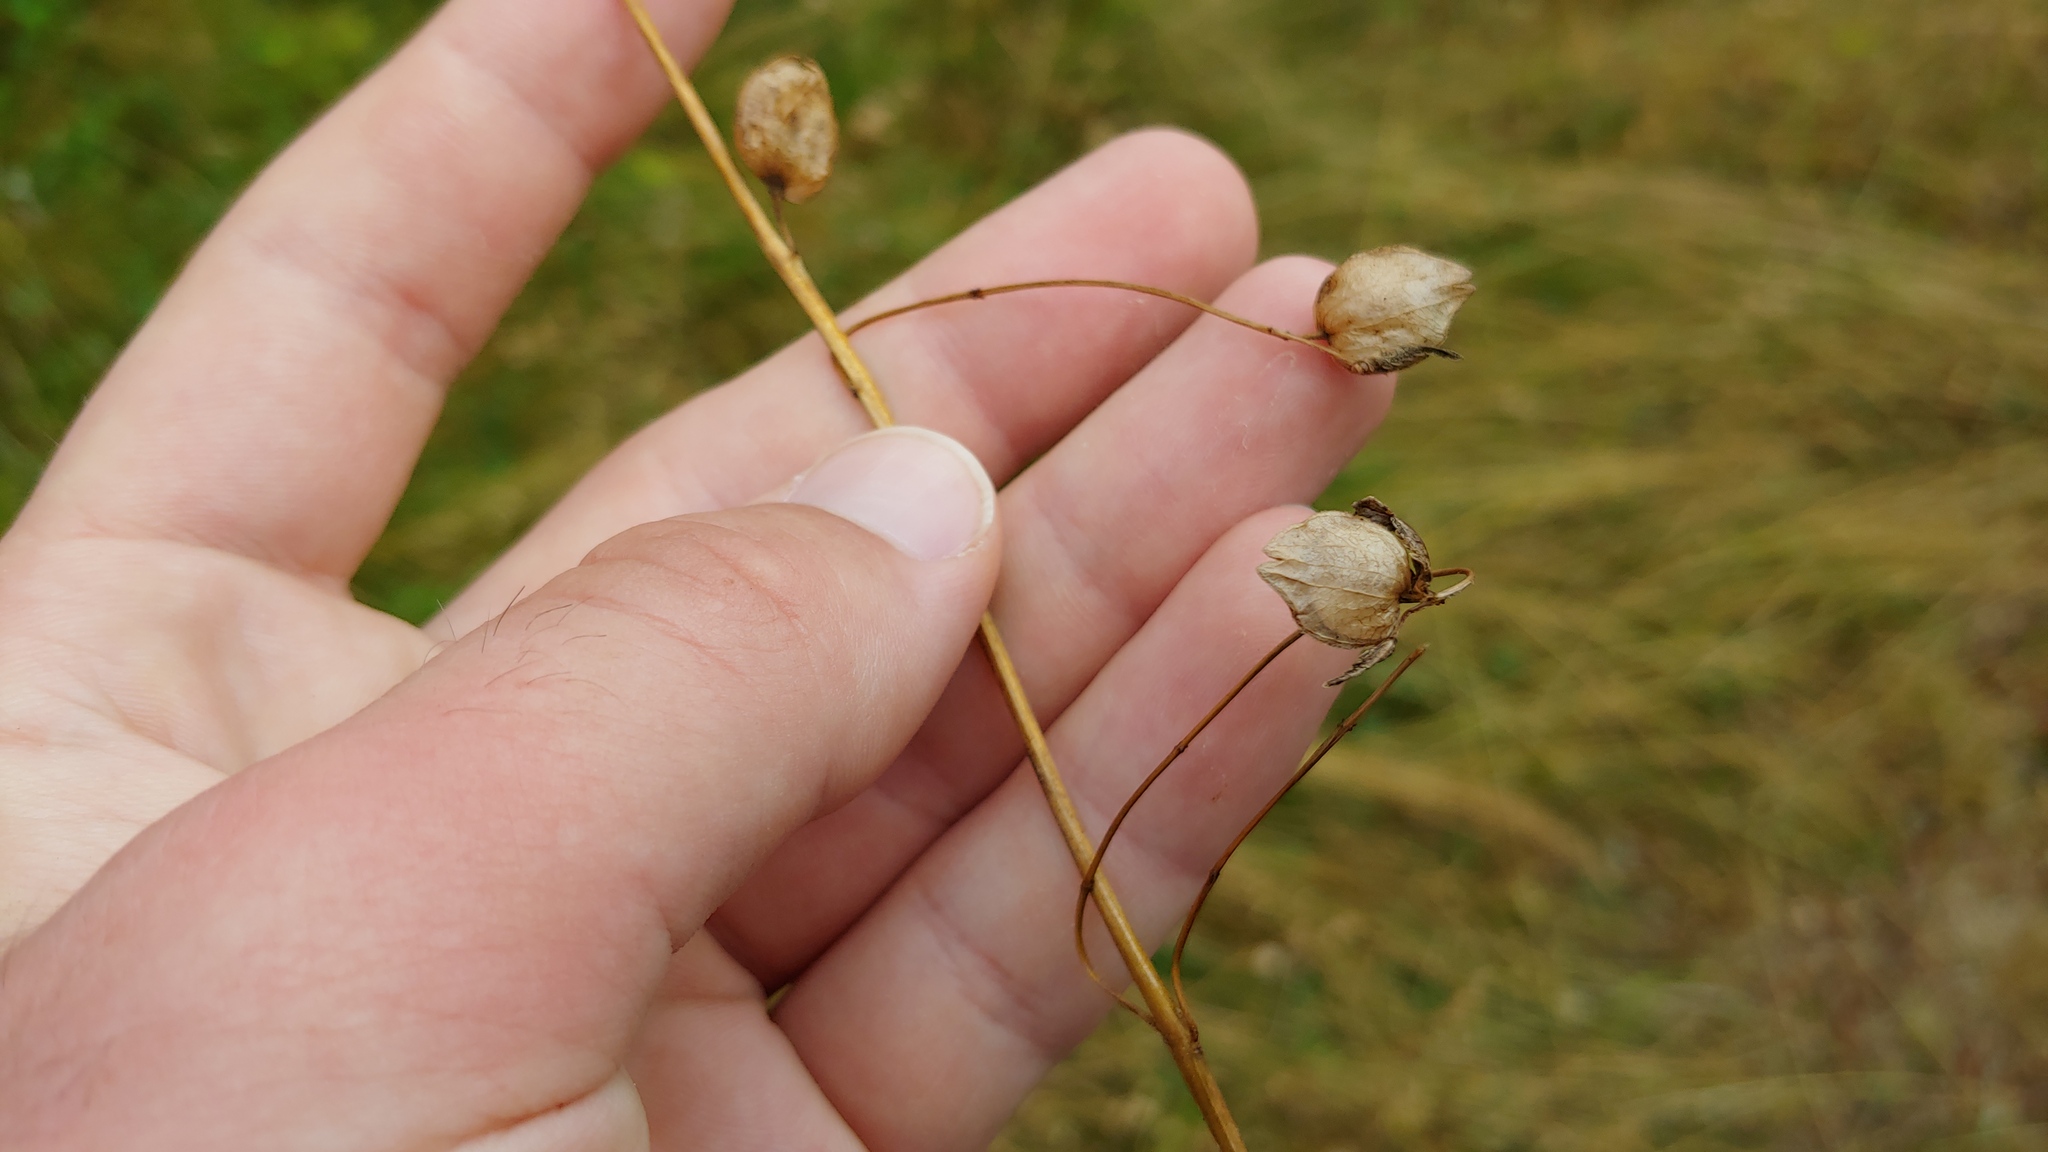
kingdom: Plantae
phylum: Tracheophyta
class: Magnoliopsida
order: Lamiales
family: Orobanchaceae
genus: Rhinanthus
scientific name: Rhinanthus minor
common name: Yellow-rattle
